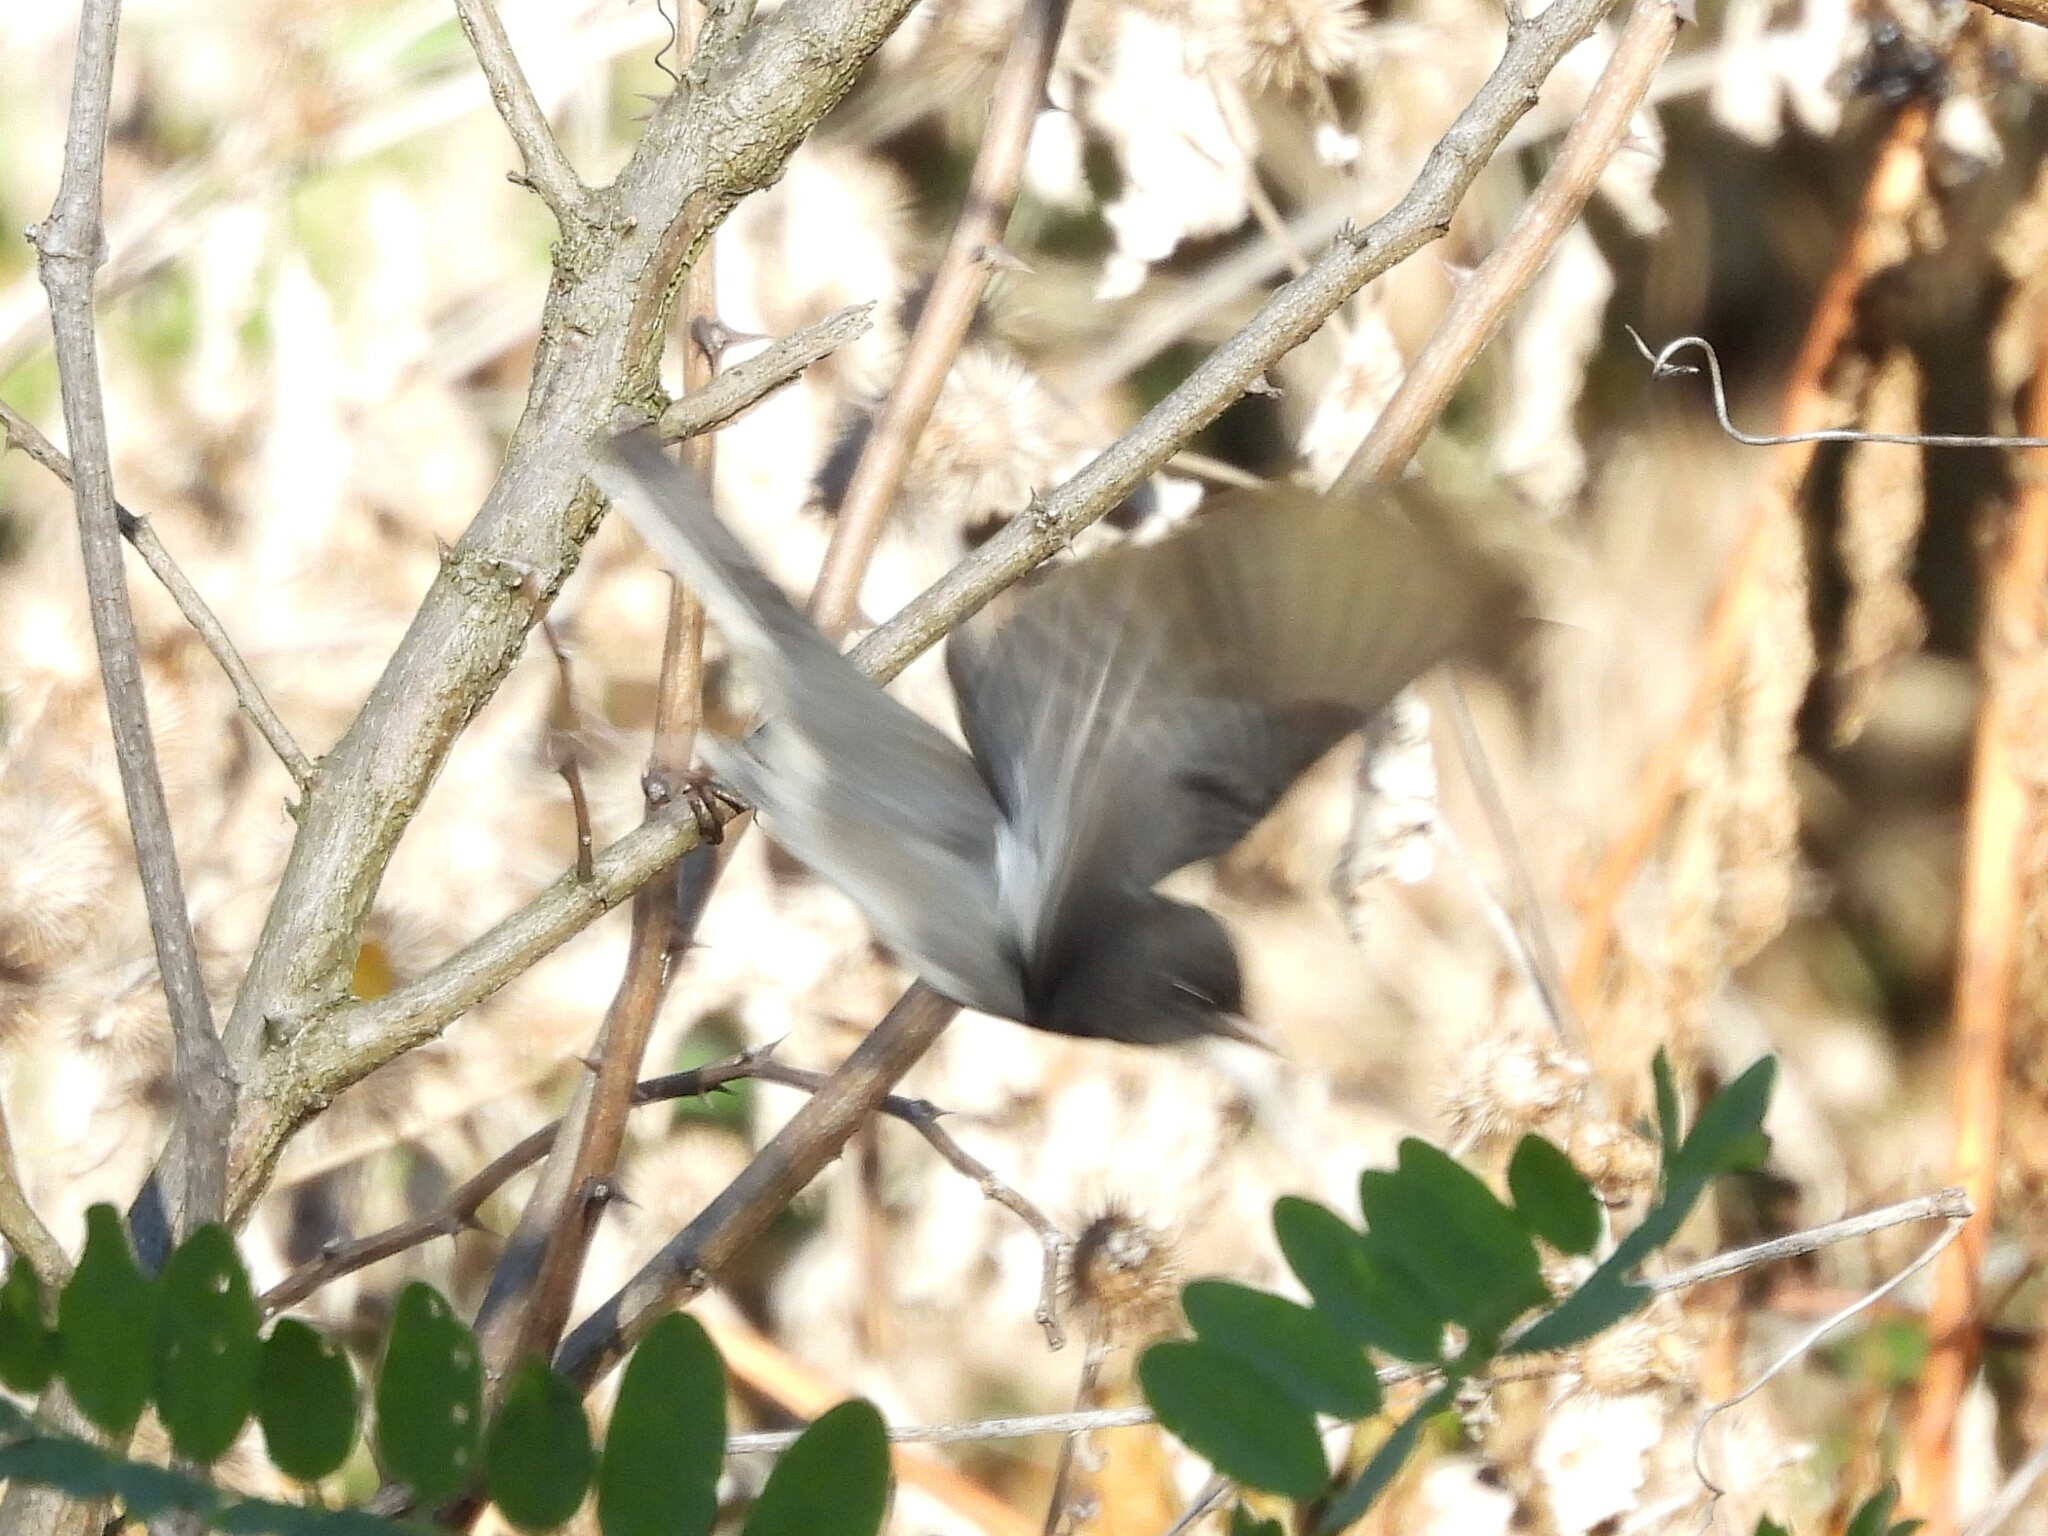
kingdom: Animalia
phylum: Chordata
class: Aves
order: Passeriformes
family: Passerellidae
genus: Junco
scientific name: Junco hyemalis
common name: Dark-eyed junco
